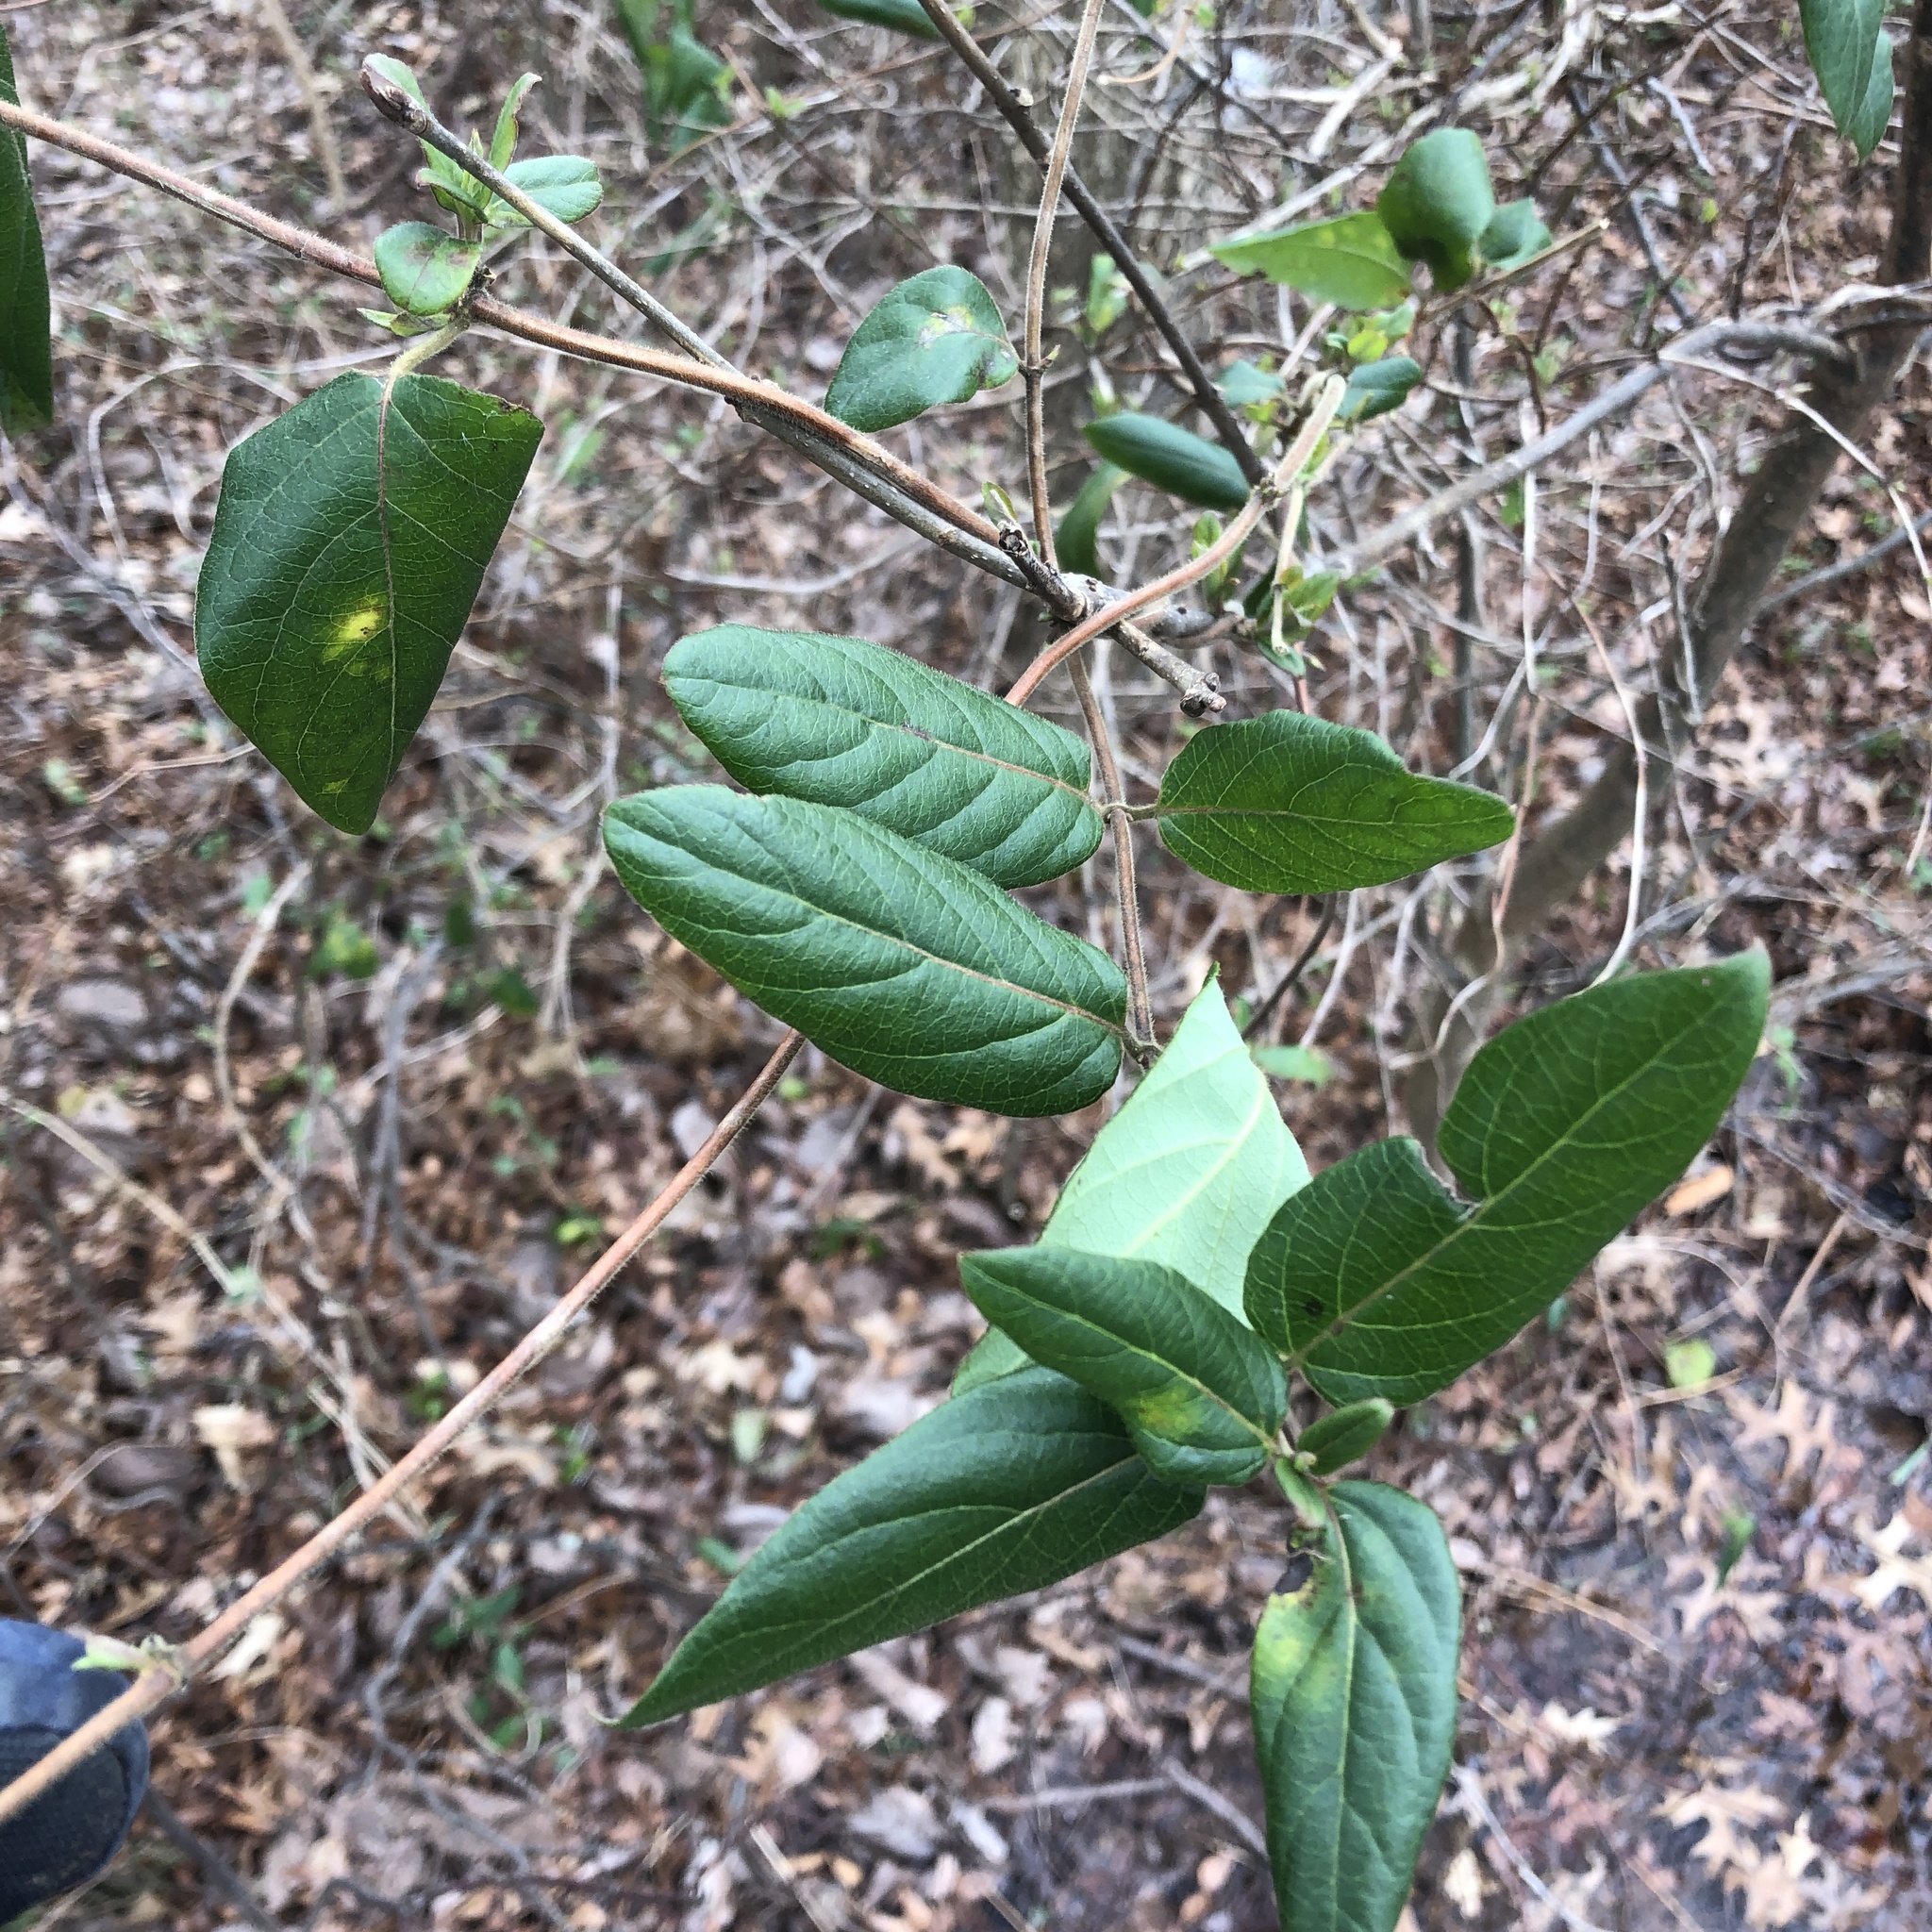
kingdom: Plantae
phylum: Tracheophyta
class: Magnoliopsida
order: Dipsacales
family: Caprifoliaceae
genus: Lonicera
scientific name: Lonicera japonica
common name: Japanese honeysuckle
